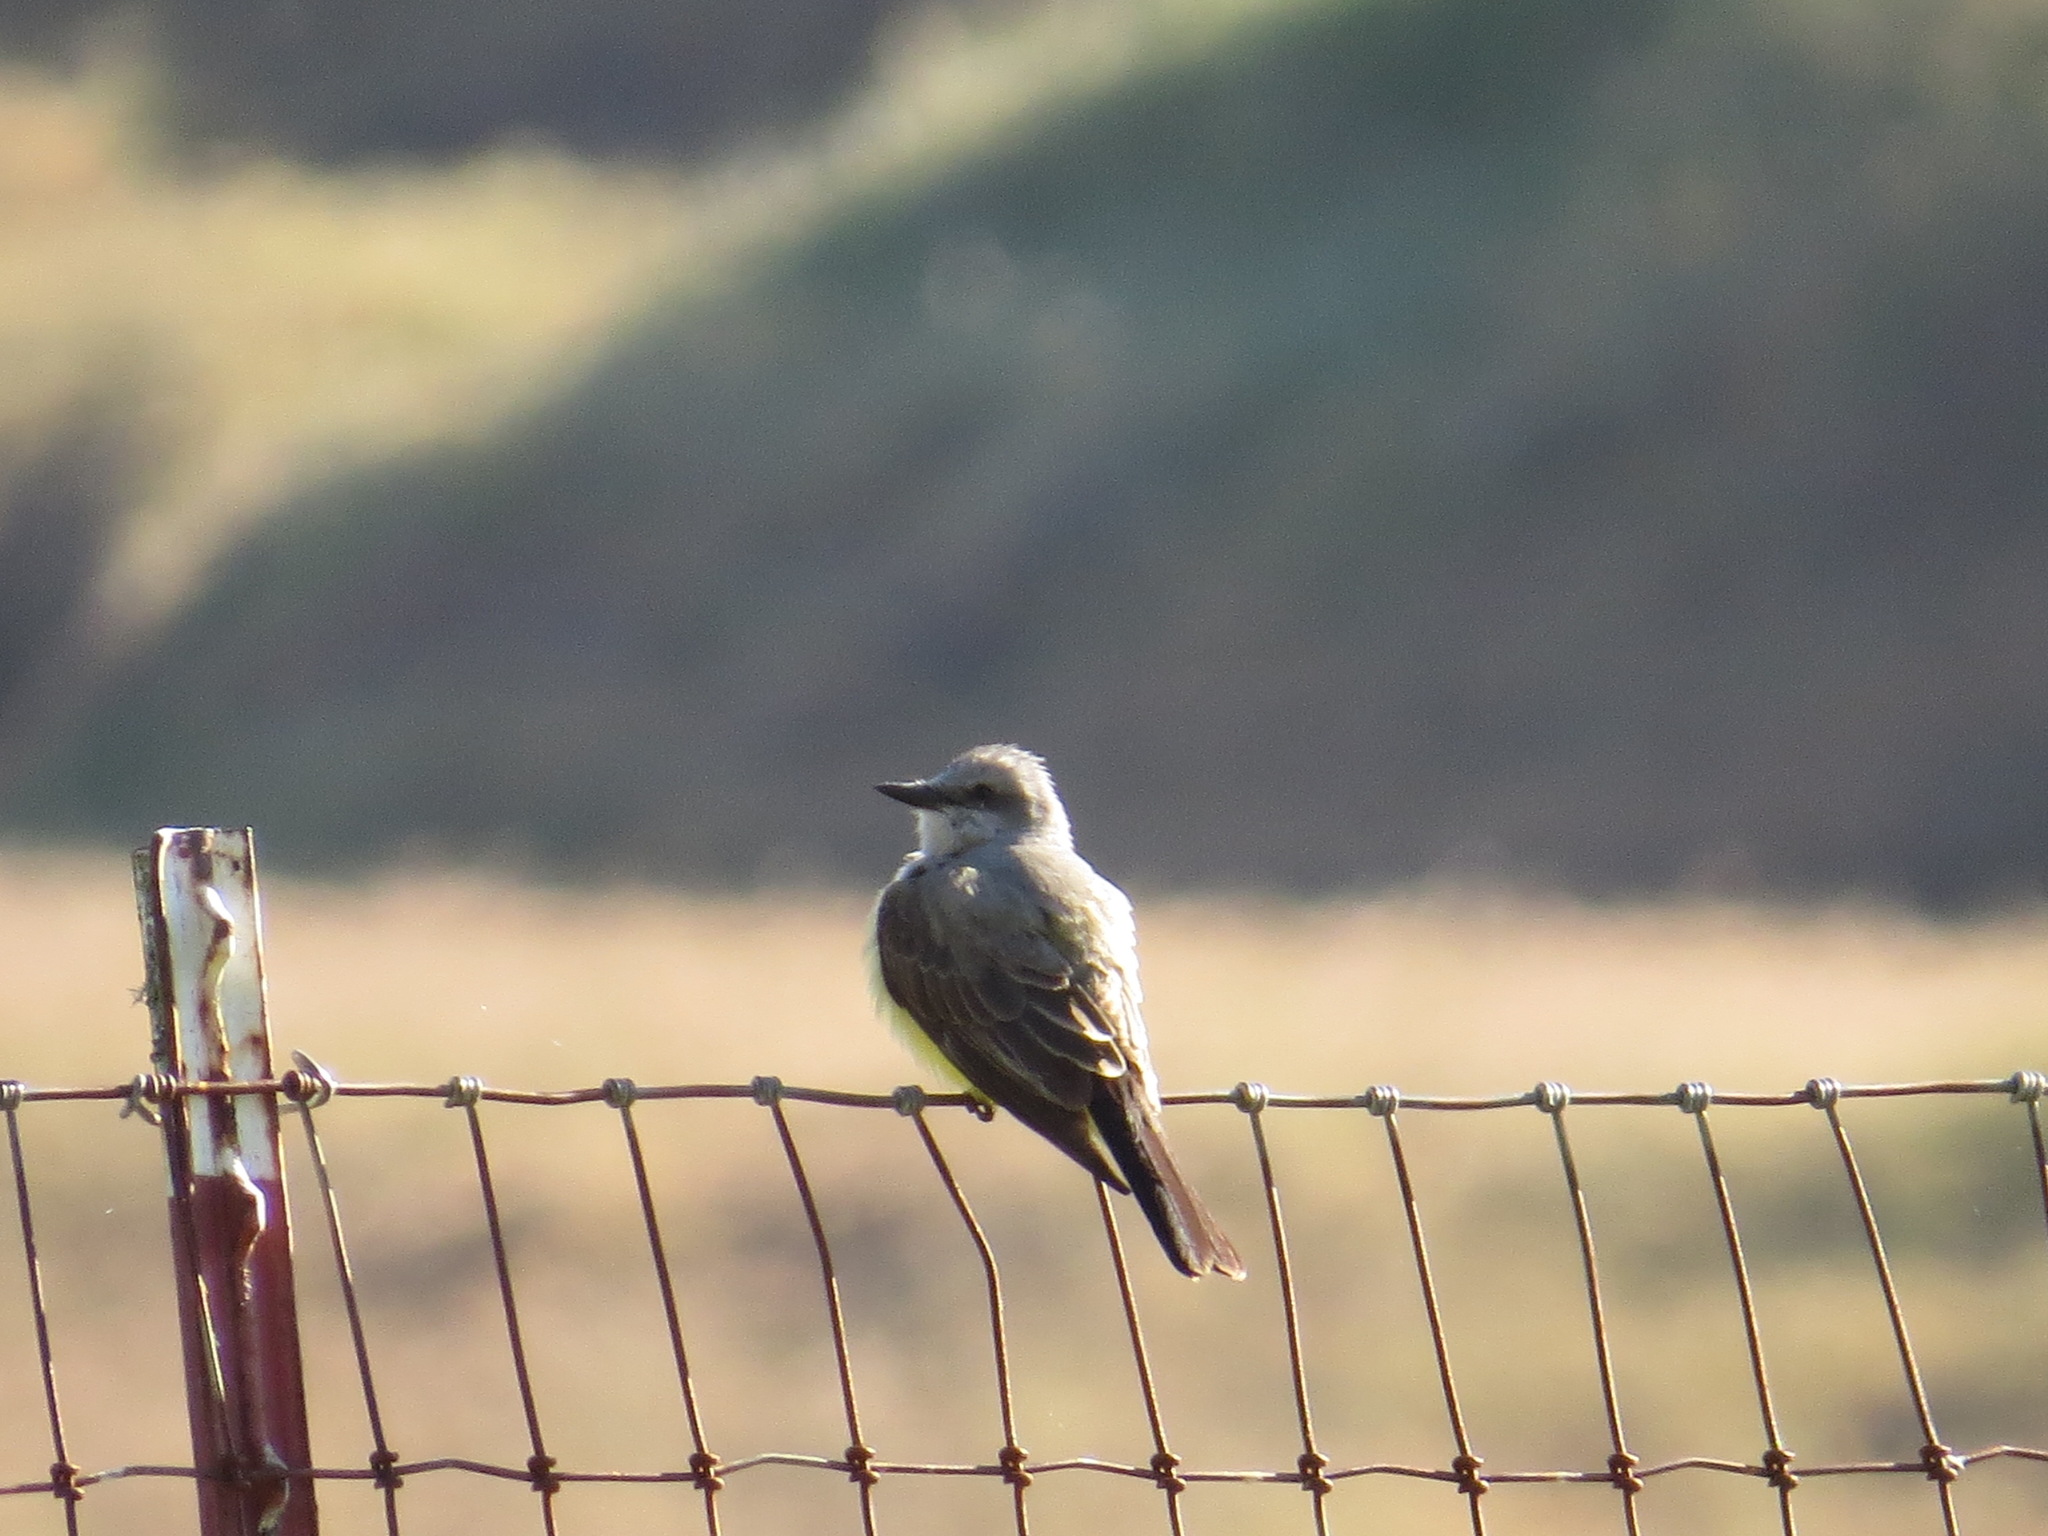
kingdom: Animalia
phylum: Chordata
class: Aves
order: Passeriformes
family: Tyrannidae
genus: Tyrannus
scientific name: Tyrannus verticalis
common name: Western kingbird
